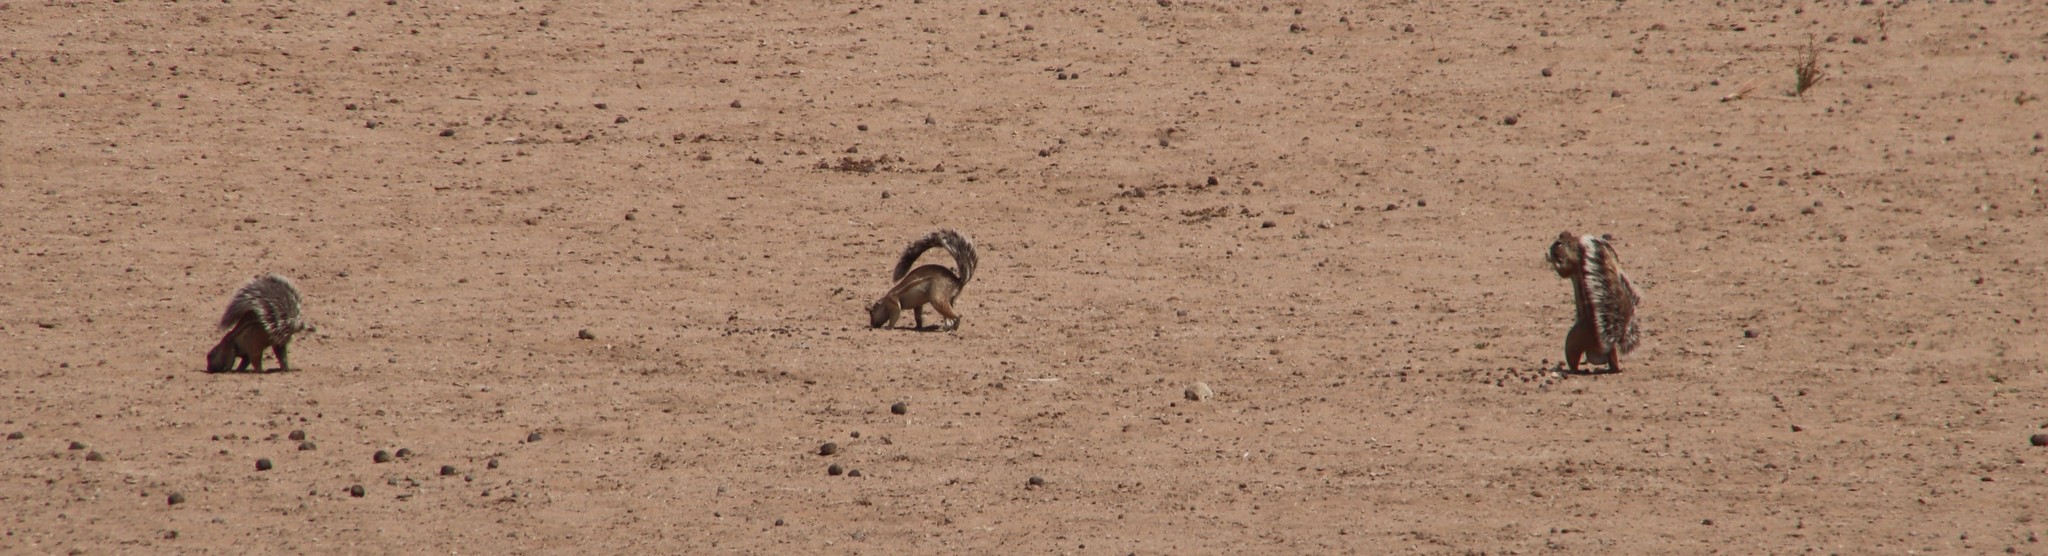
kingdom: Animalia
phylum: Chordata
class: Mammalia
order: Rodentia
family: Sciuridae
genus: Xerus
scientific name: Xerus inauris
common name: South african ground squirrel
